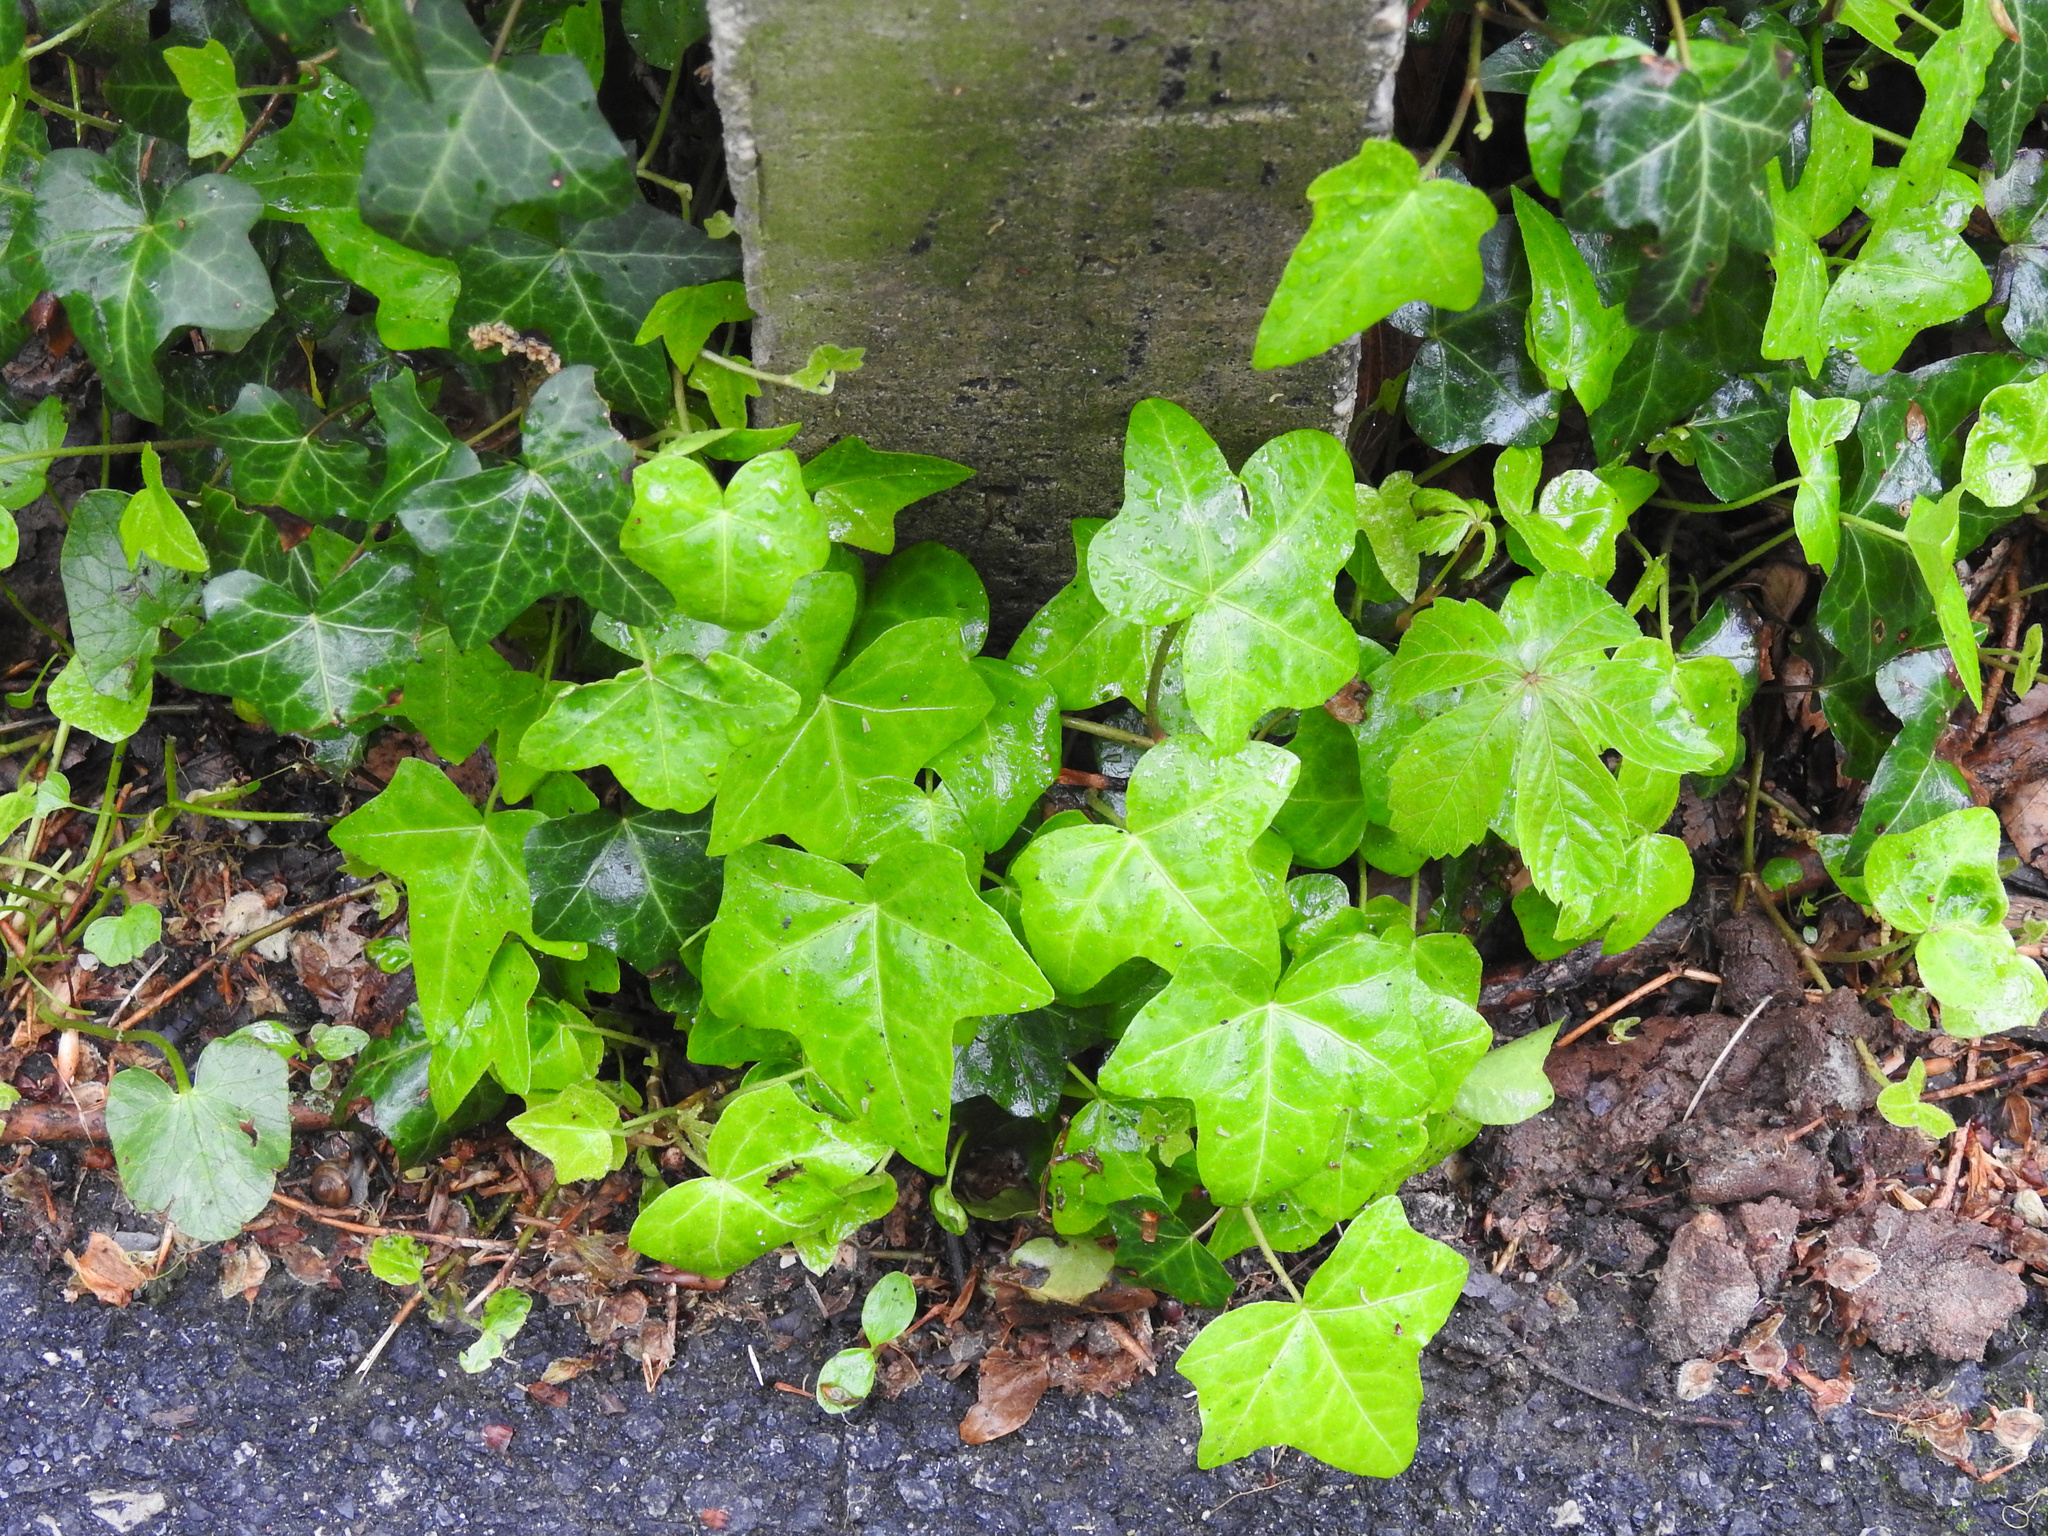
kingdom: Plantae
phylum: Tracheophyta
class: Magnoliopsida
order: Apiales
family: Araliaceae
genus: Hedera
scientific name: Hedera helix
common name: Ivy
